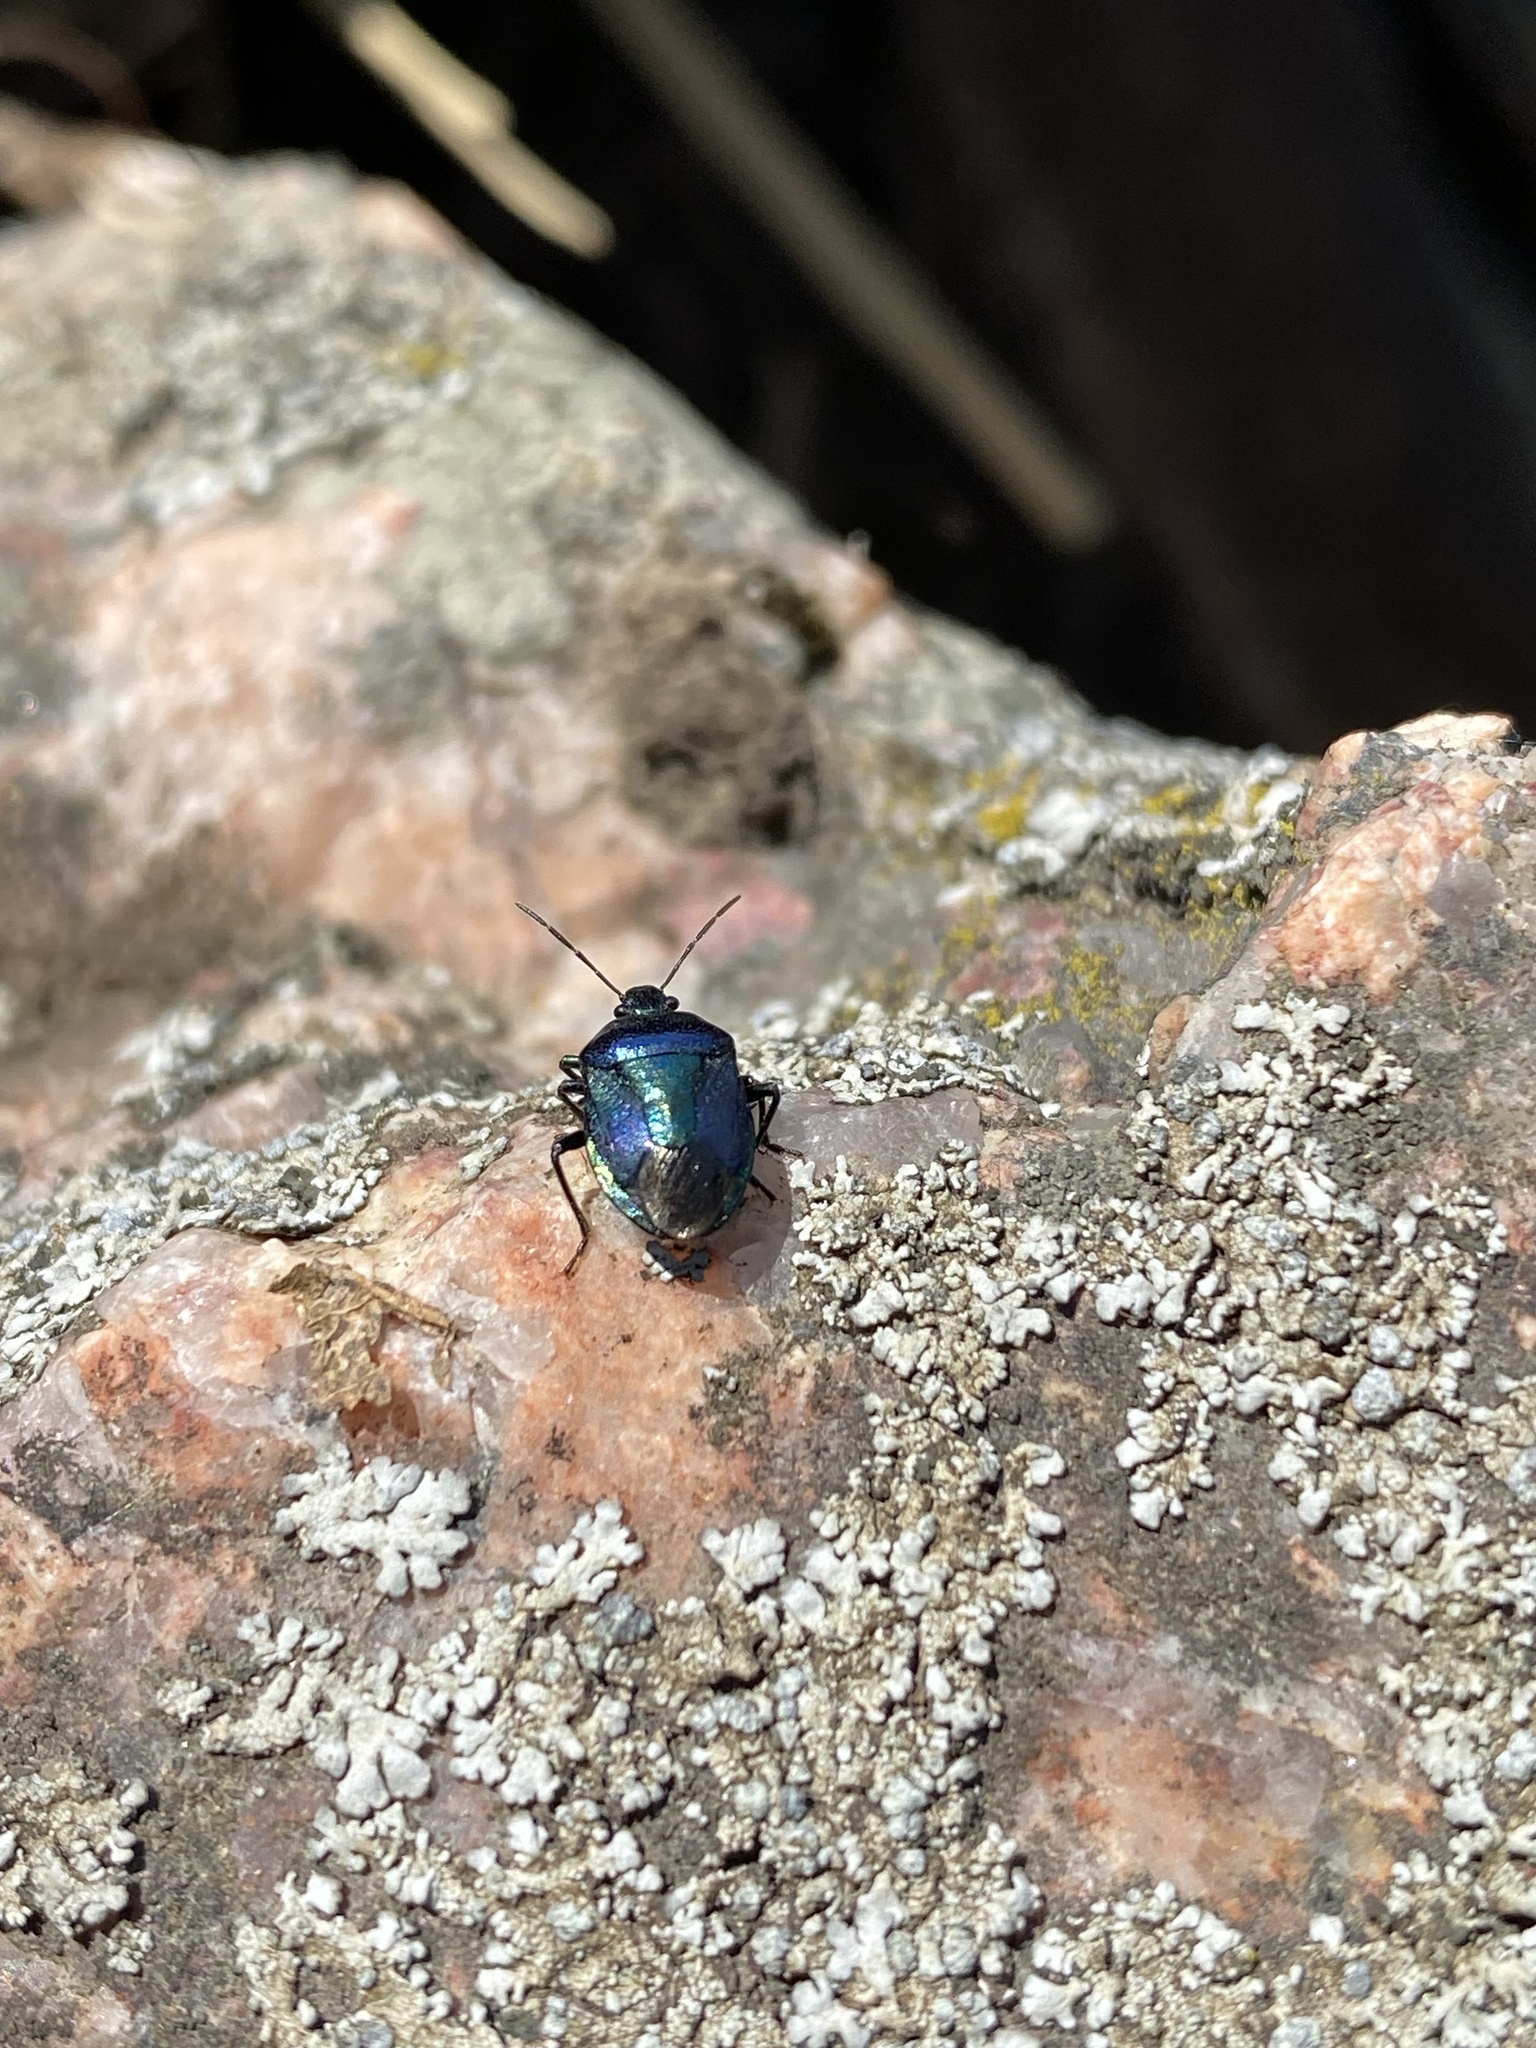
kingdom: Animalia
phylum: Arthropoda
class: Insecta
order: Hemiptera
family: Pentatomidae
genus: Zicrona
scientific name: Zicrona caerulea
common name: Blue shieldbug
